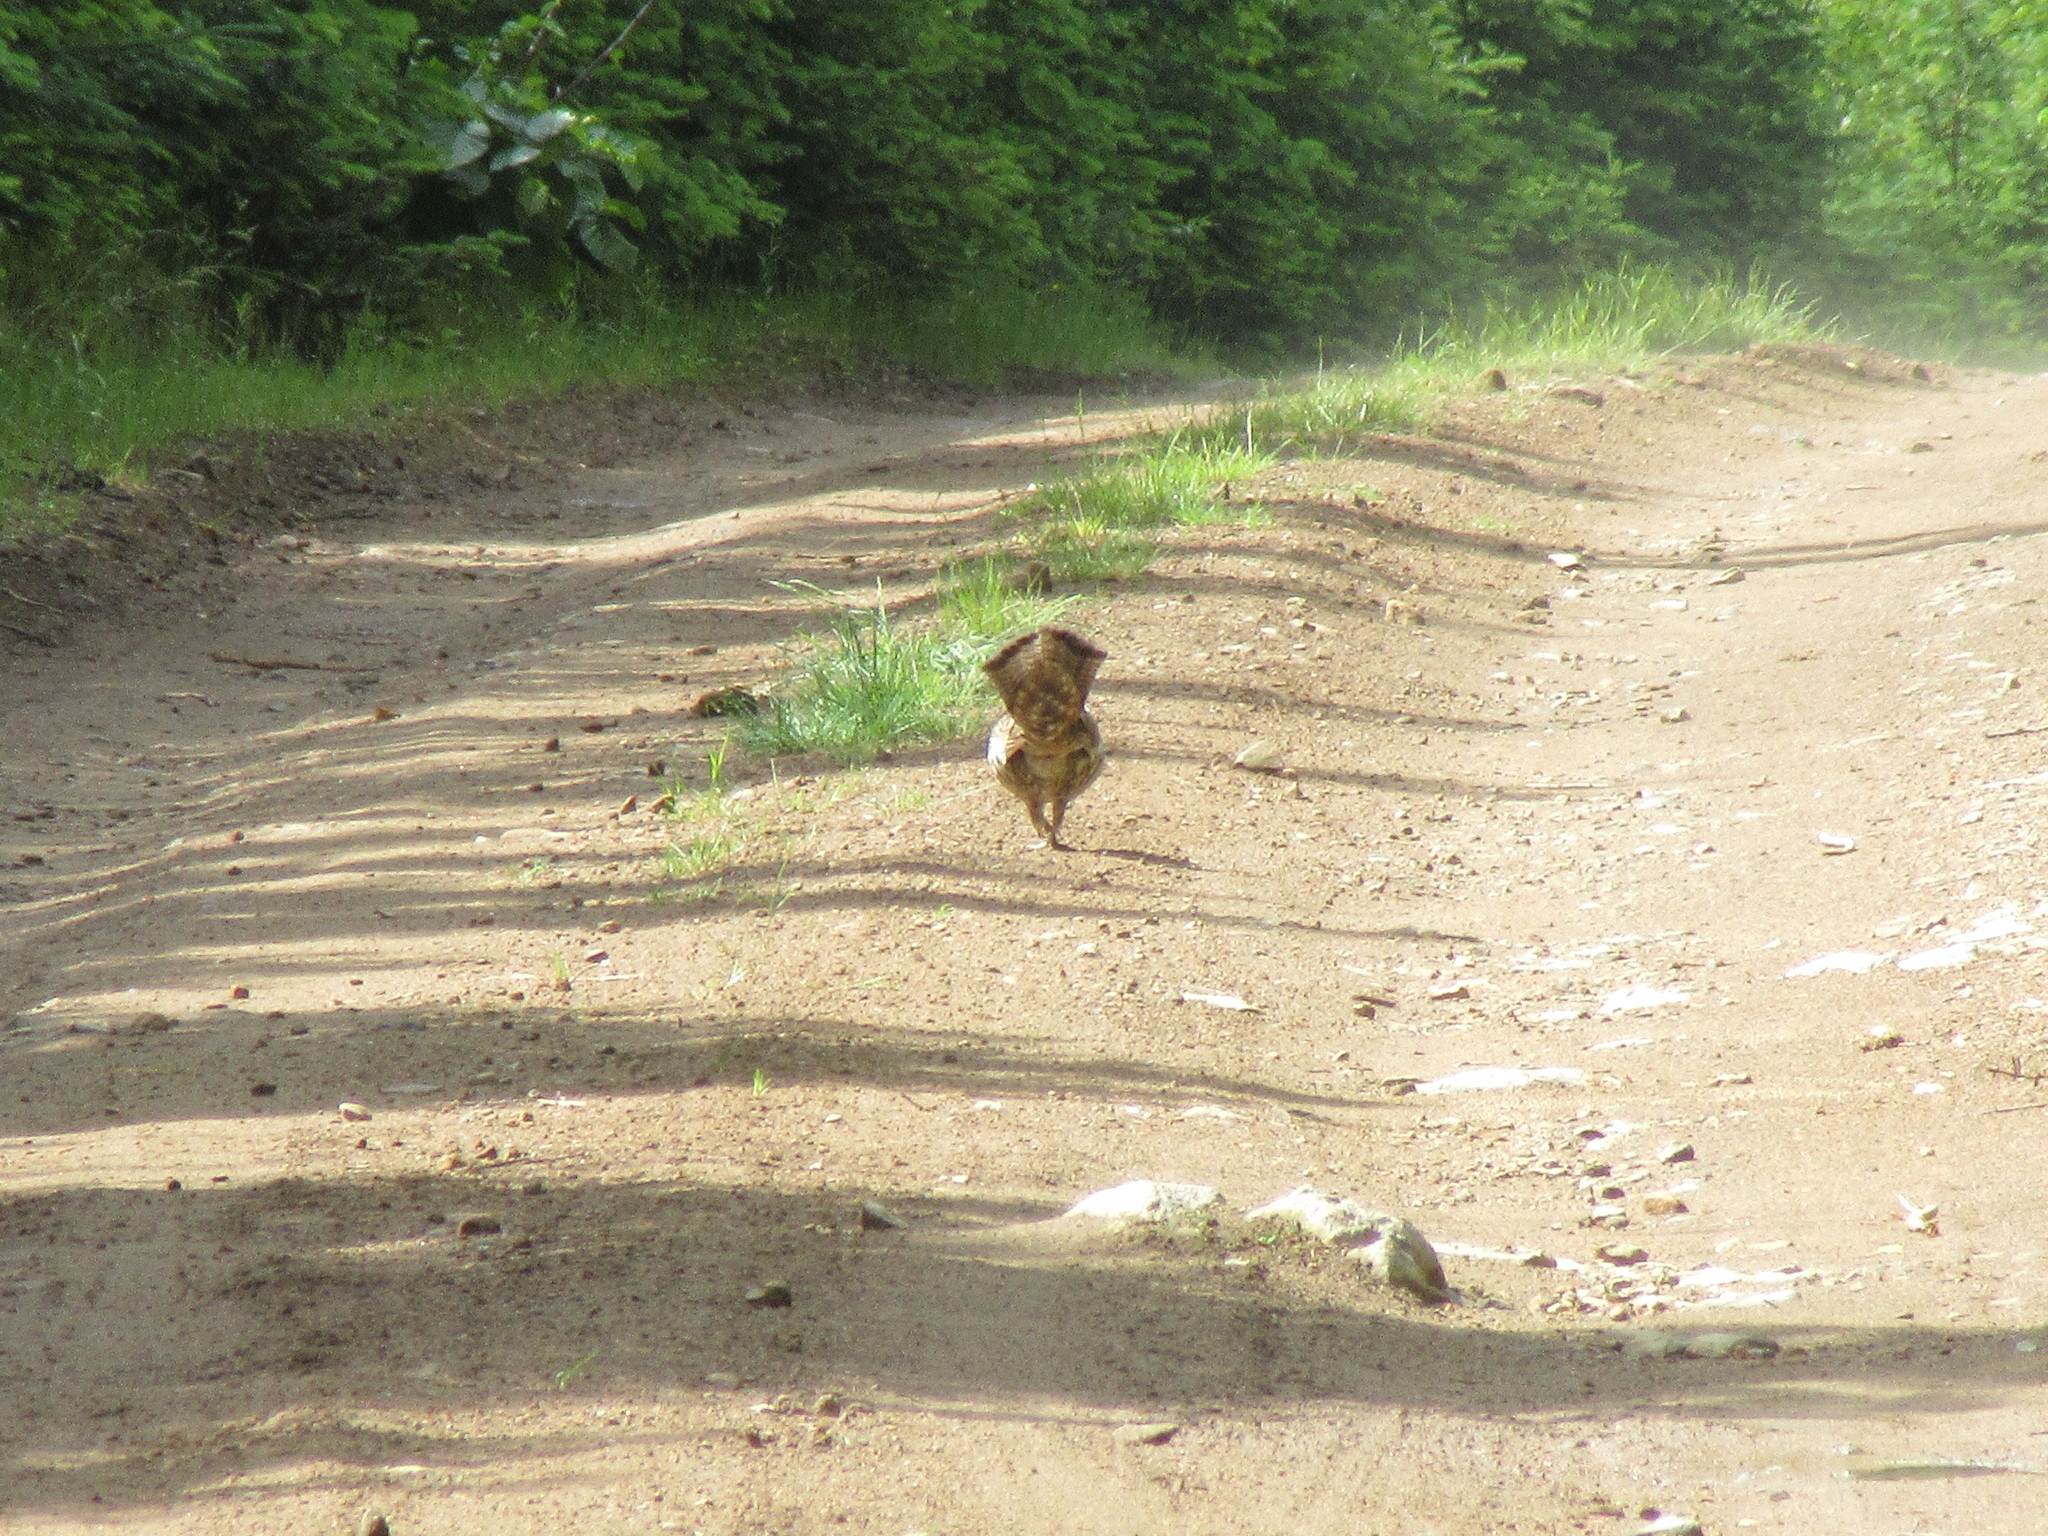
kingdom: Animalia
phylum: Chordata
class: Aves
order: Galliformes
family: Phasianidae
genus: Bonasa
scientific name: Bonasa umbellus
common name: Ruffed grouse
